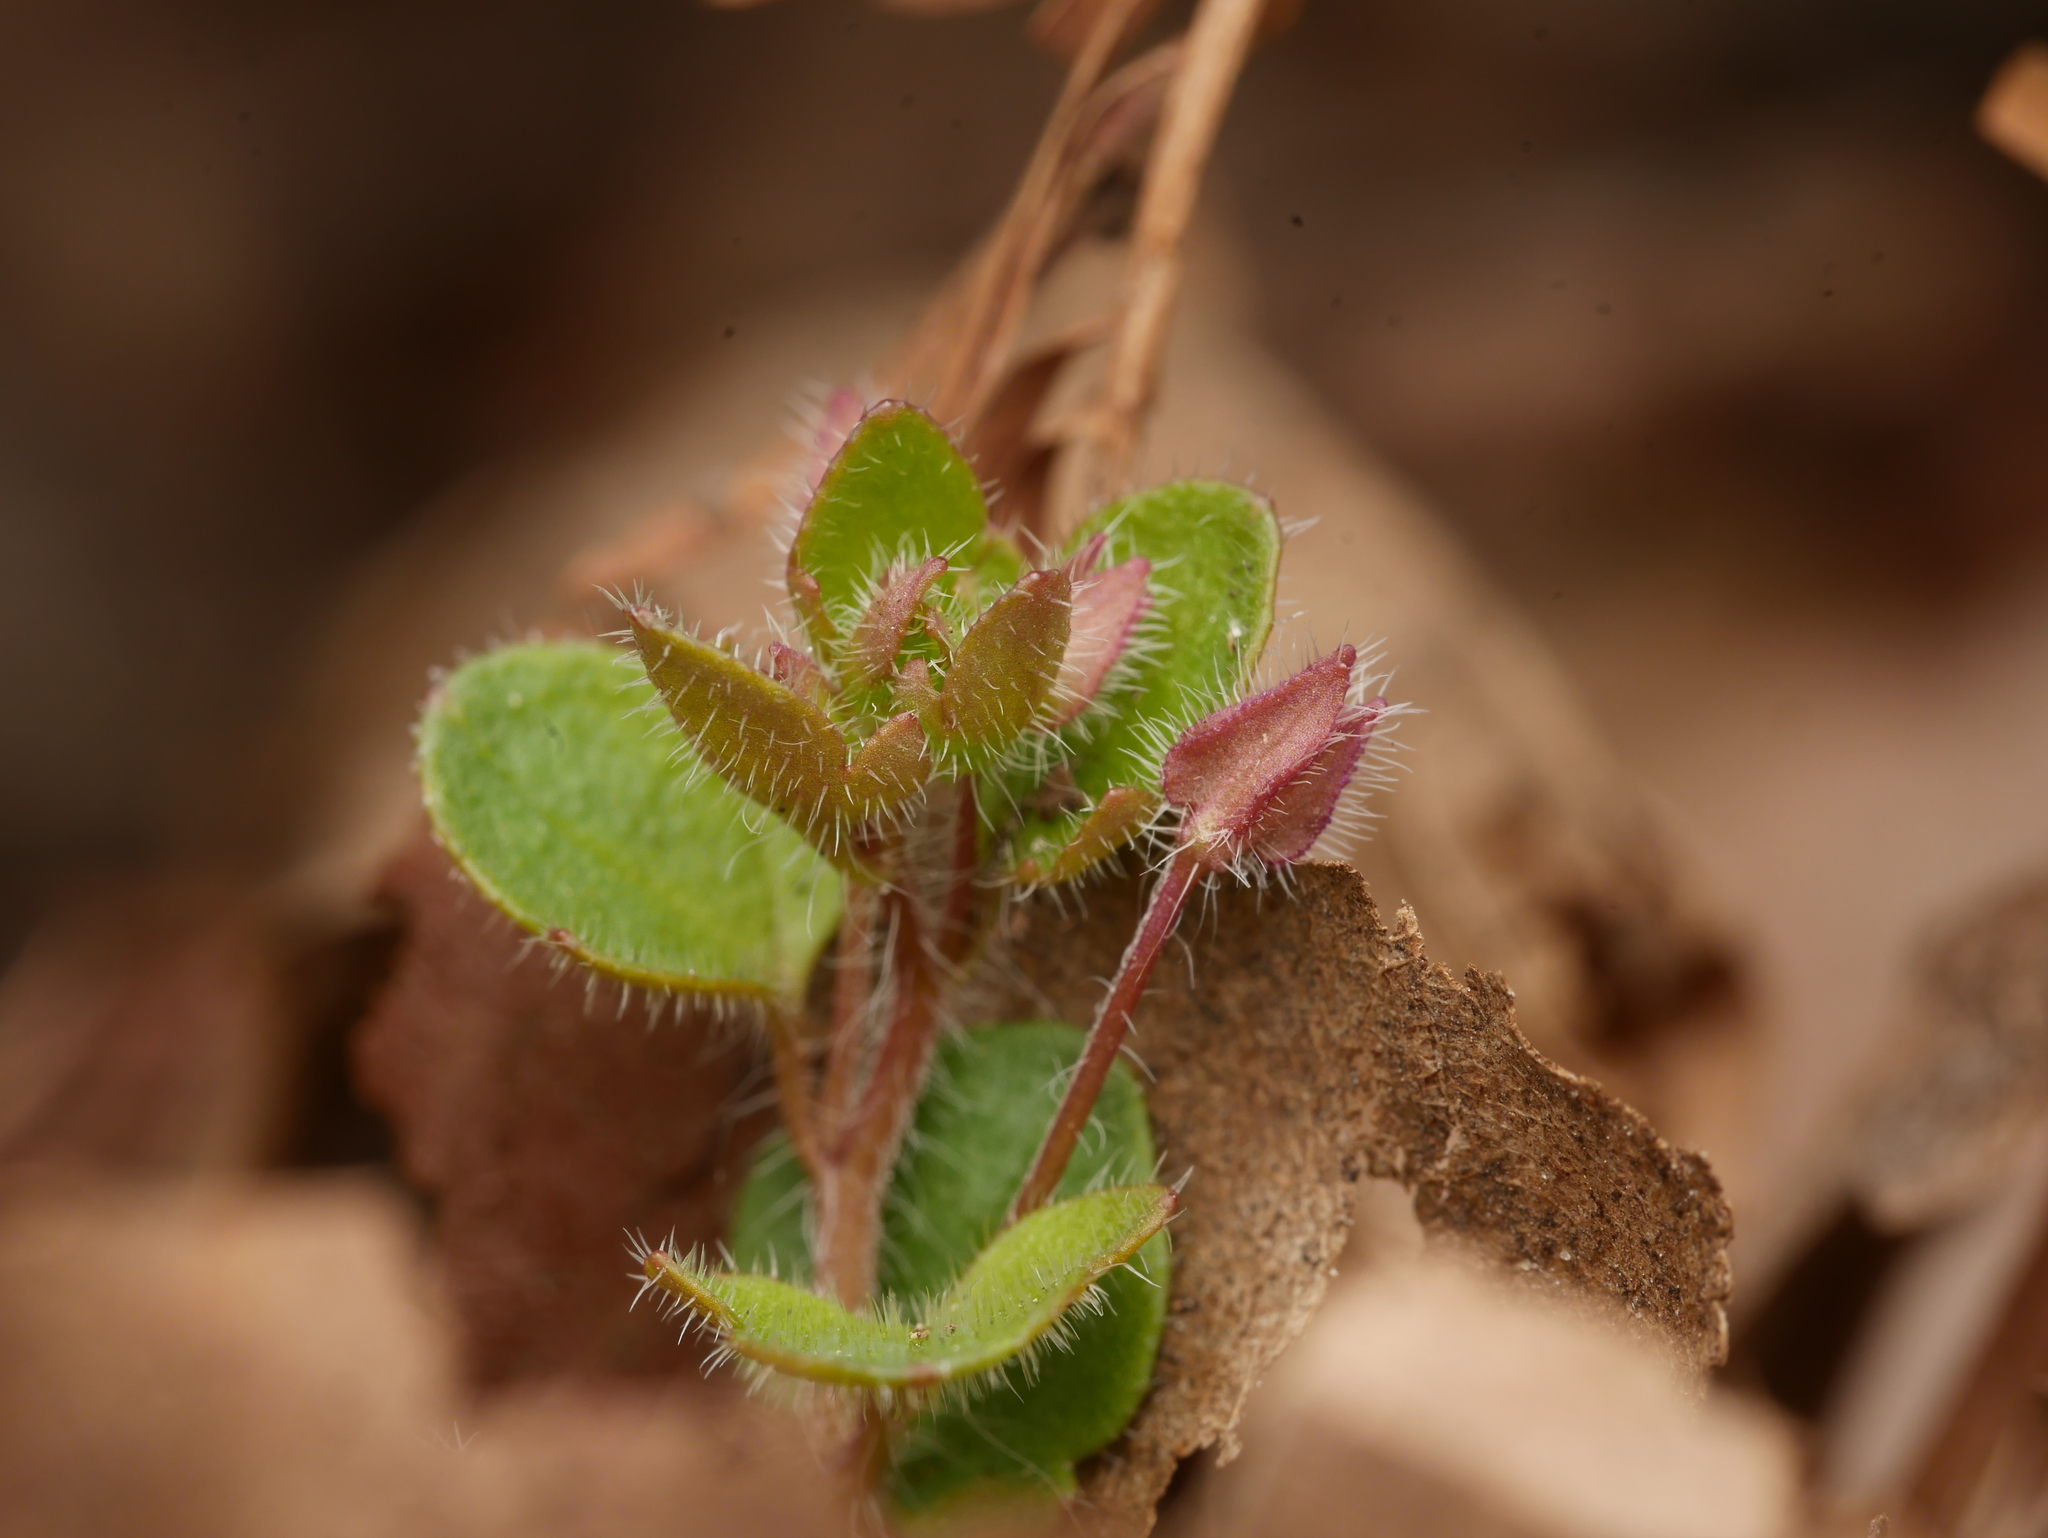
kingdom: Plantae
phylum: Tracheophyta
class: Magnoliopsida
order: Lamiales
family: Plantaginaceae
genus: Veronica
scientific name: Veronica sublobata
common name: False ivy-leaved speedwell
